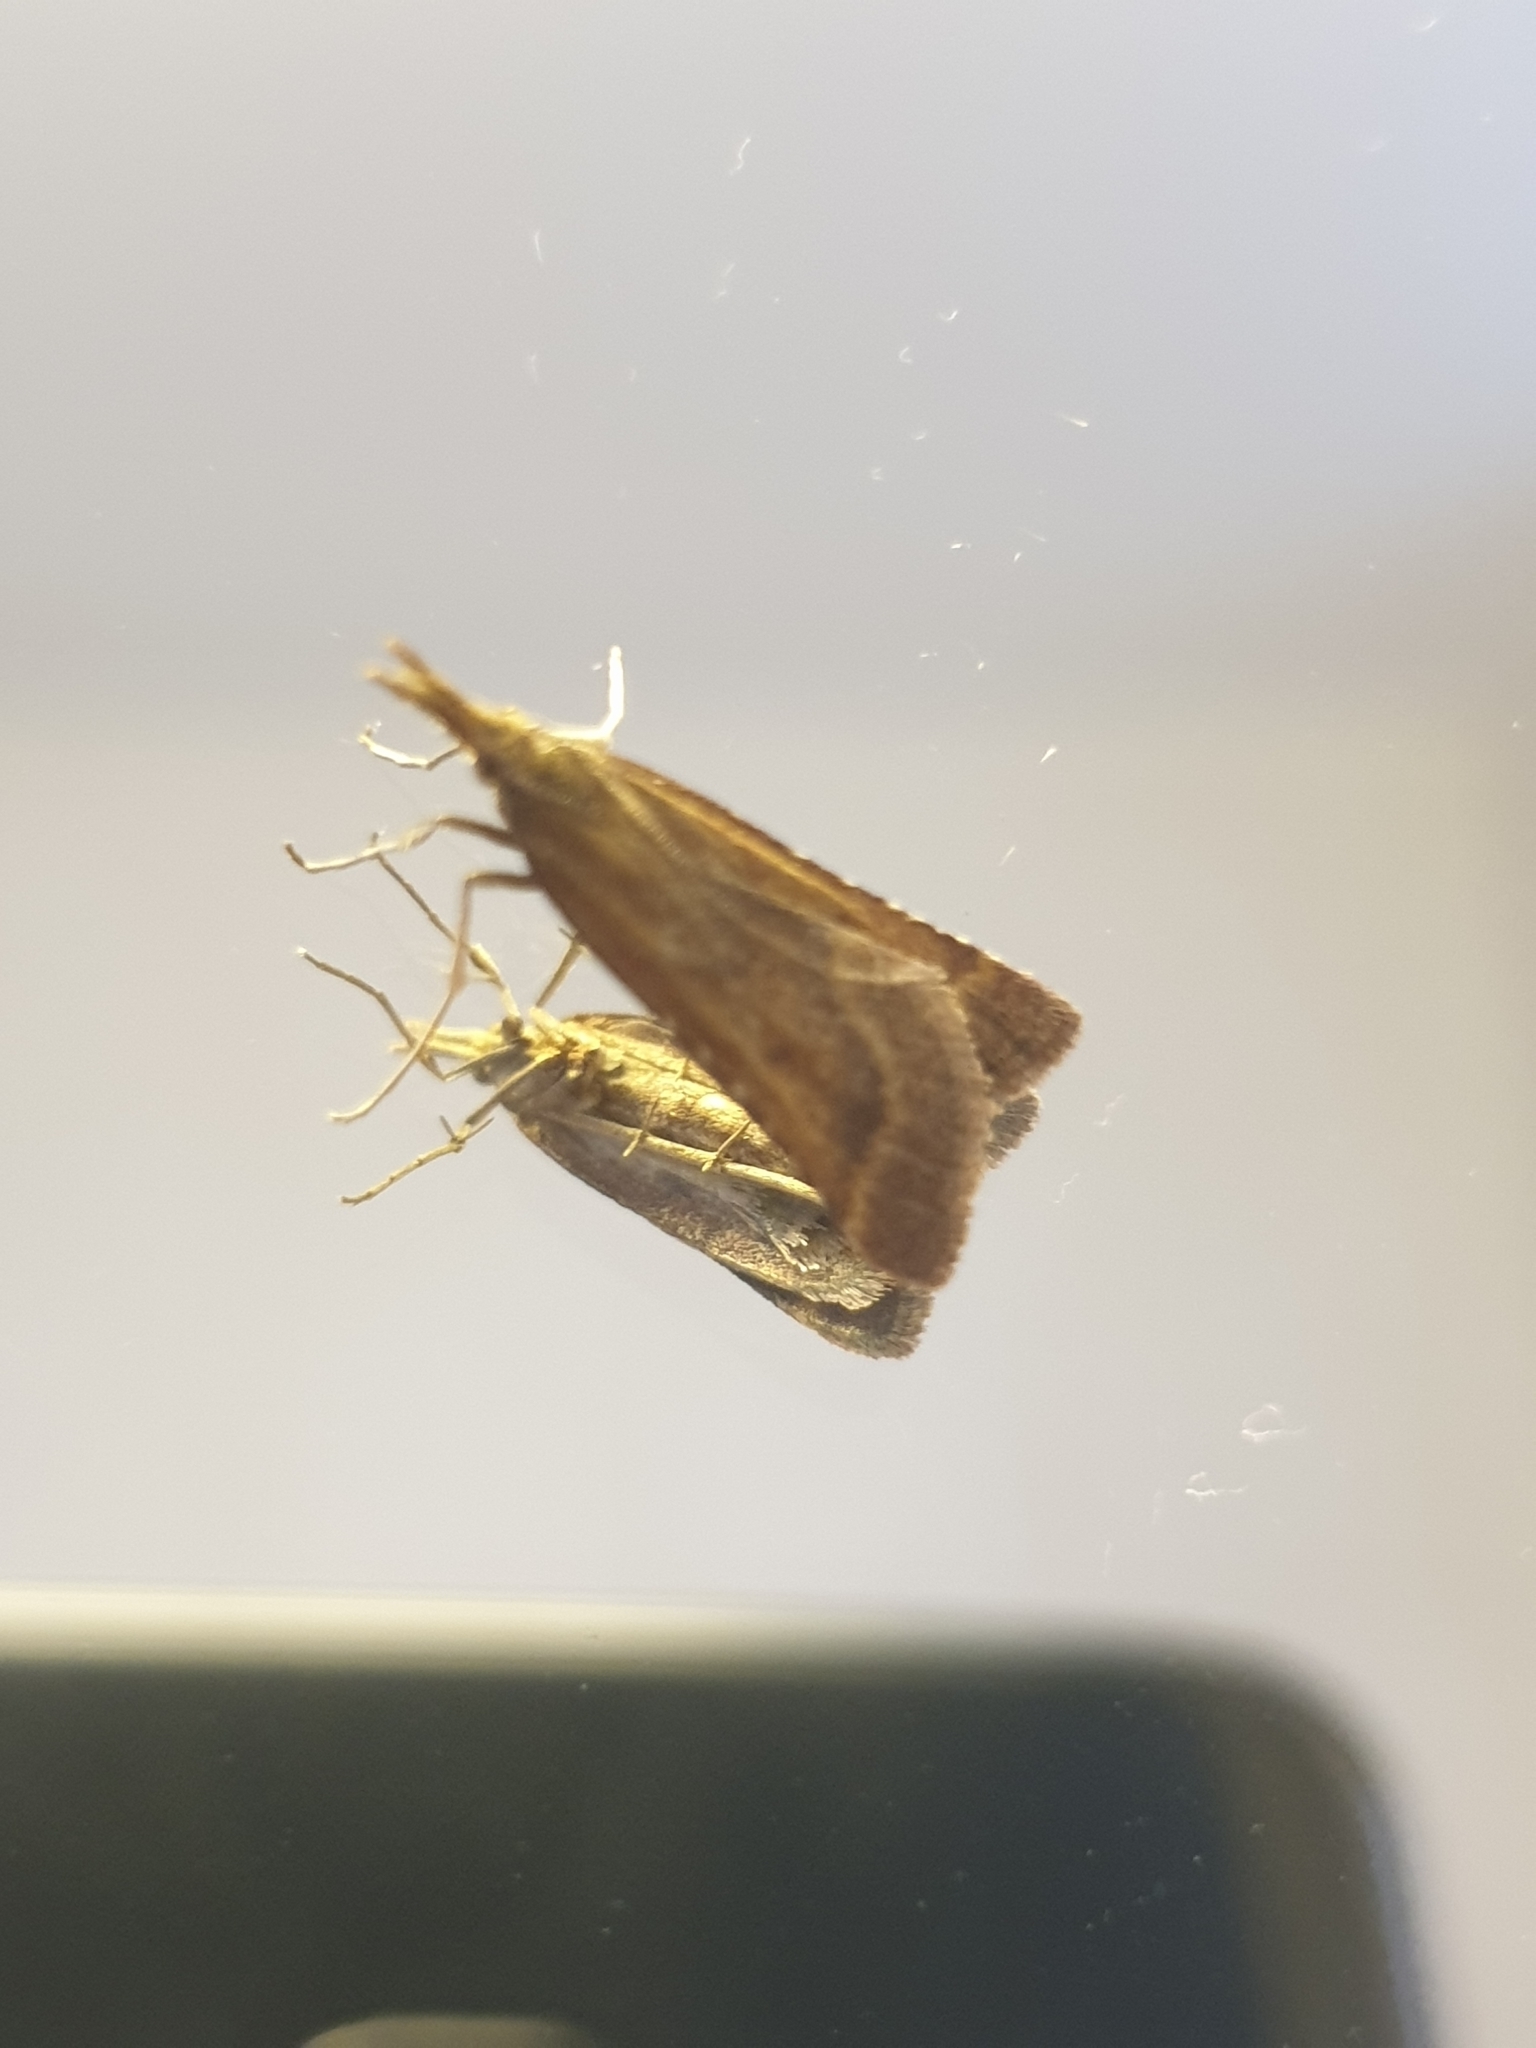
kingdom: Animalia
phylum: Arthropoda
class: Insecta
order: Lepidoptera
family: Pyralidae
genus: Synaphe
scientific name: Synaphe punctalis
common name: Long-legged tabby
